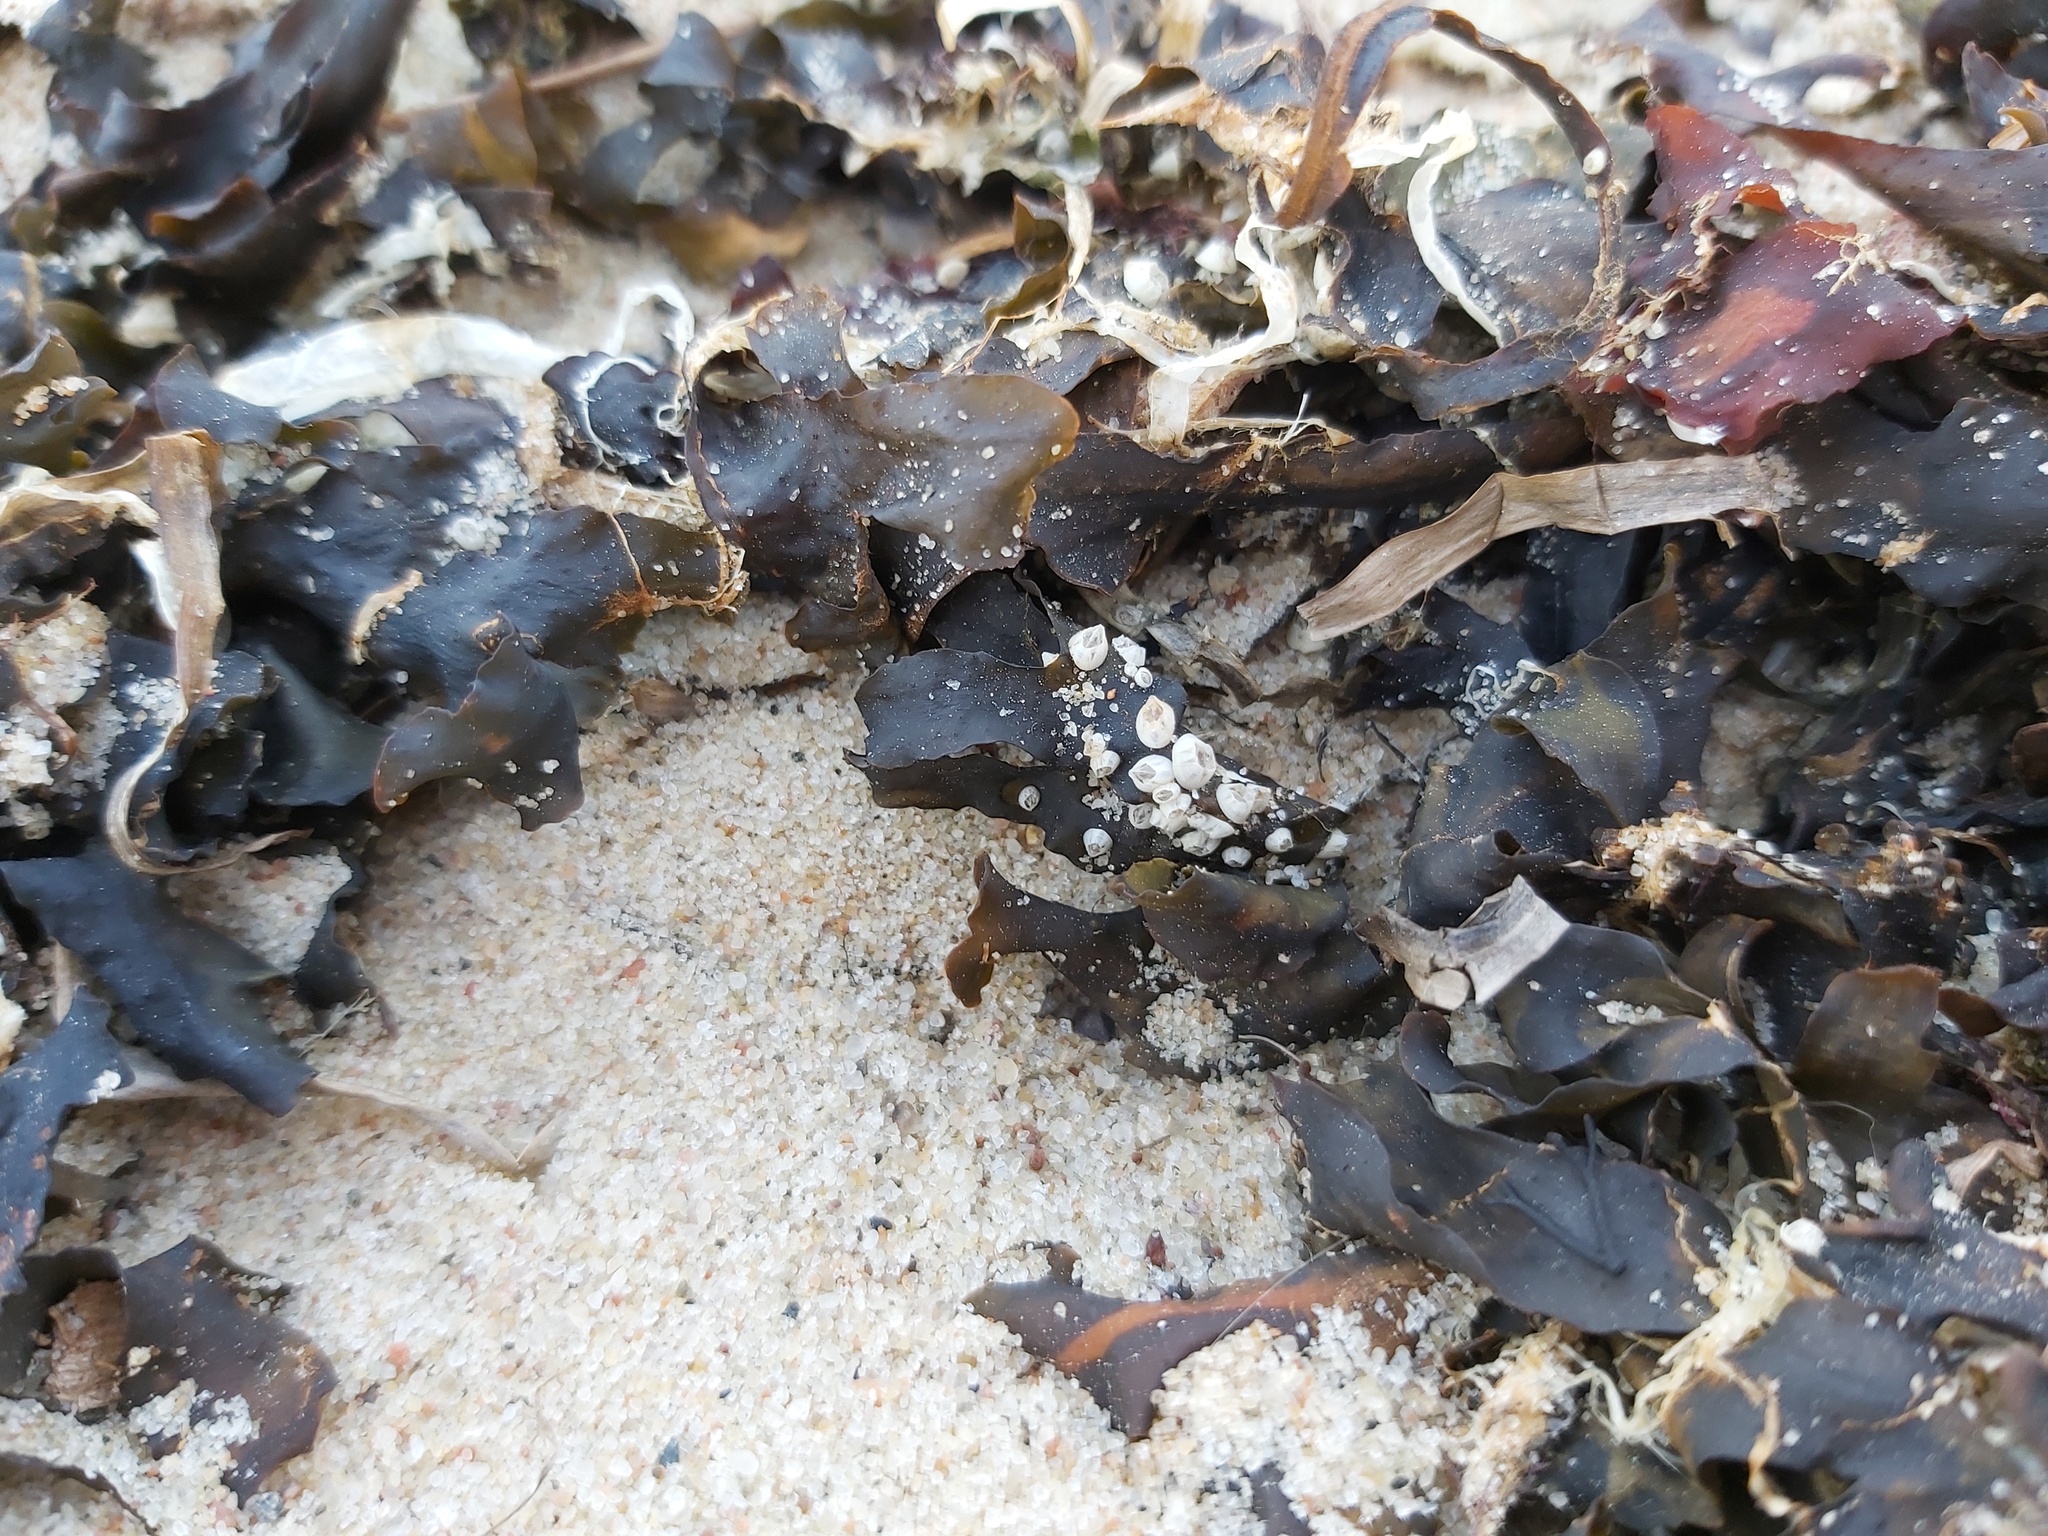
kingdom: Animalia
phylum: Arthropoda
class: Maxillopoda
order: Sessilia
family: Balanidae
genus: Amphibalanus
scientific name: Amphibalanus improvisus
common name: Bay barnacle
